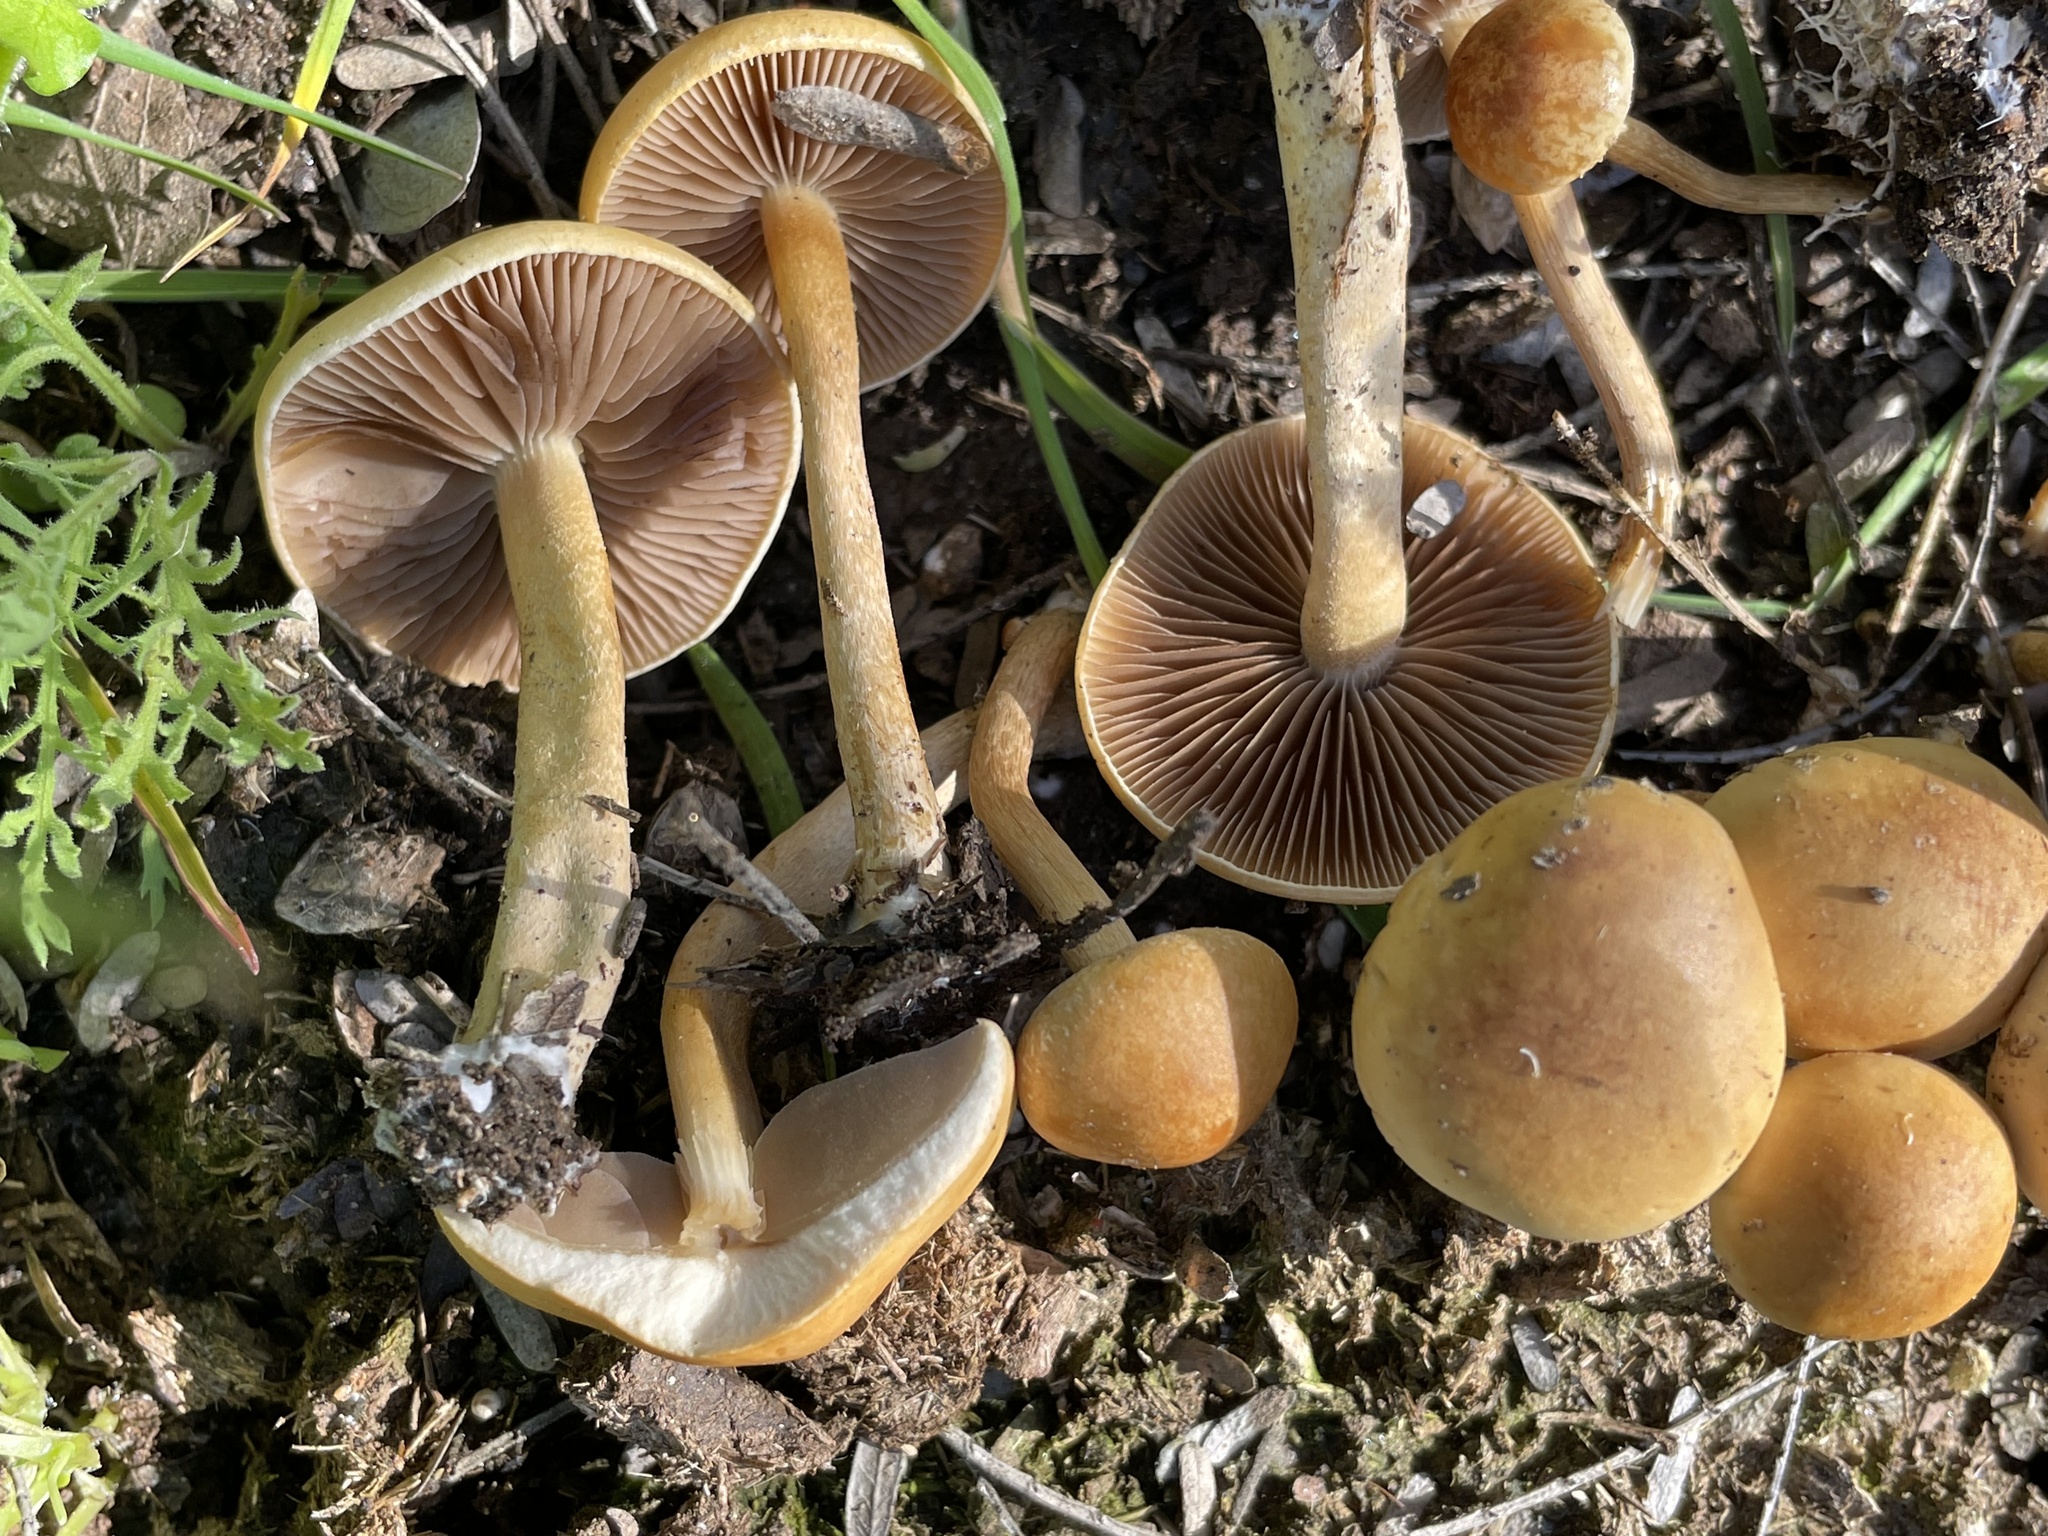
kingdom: Fungi
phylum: Basidiomycota
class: Agaricomycetes
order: Agaricales
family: Strophariaceae
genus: Agrocybe
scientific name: Agrocybe pediades
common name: Common fieldcap
